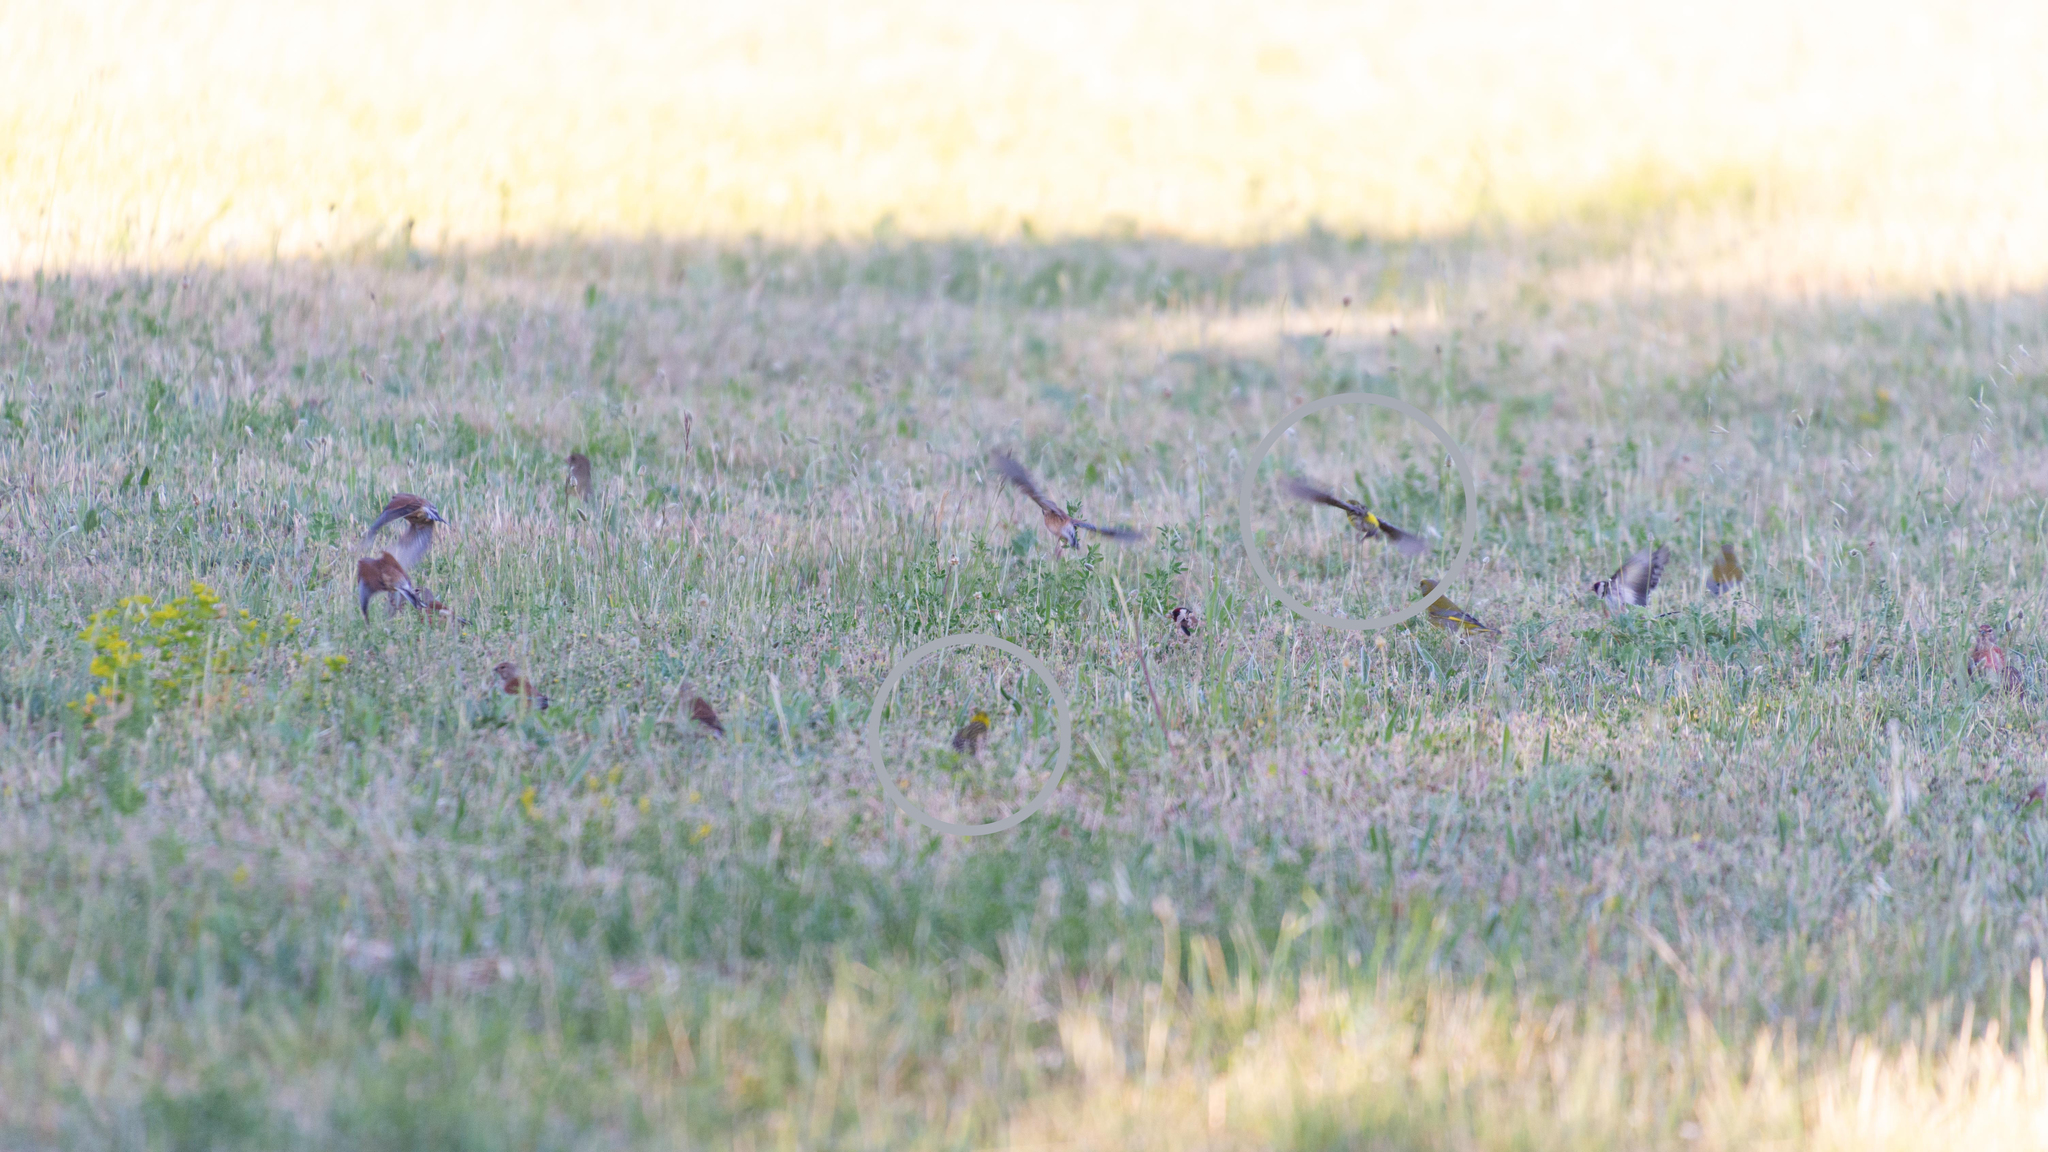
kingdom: Animalia
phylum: Chordata
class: Aves
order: Passeriformes
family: Fringillidae
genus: Serinus
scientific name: Serinus serinus
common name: European serin
